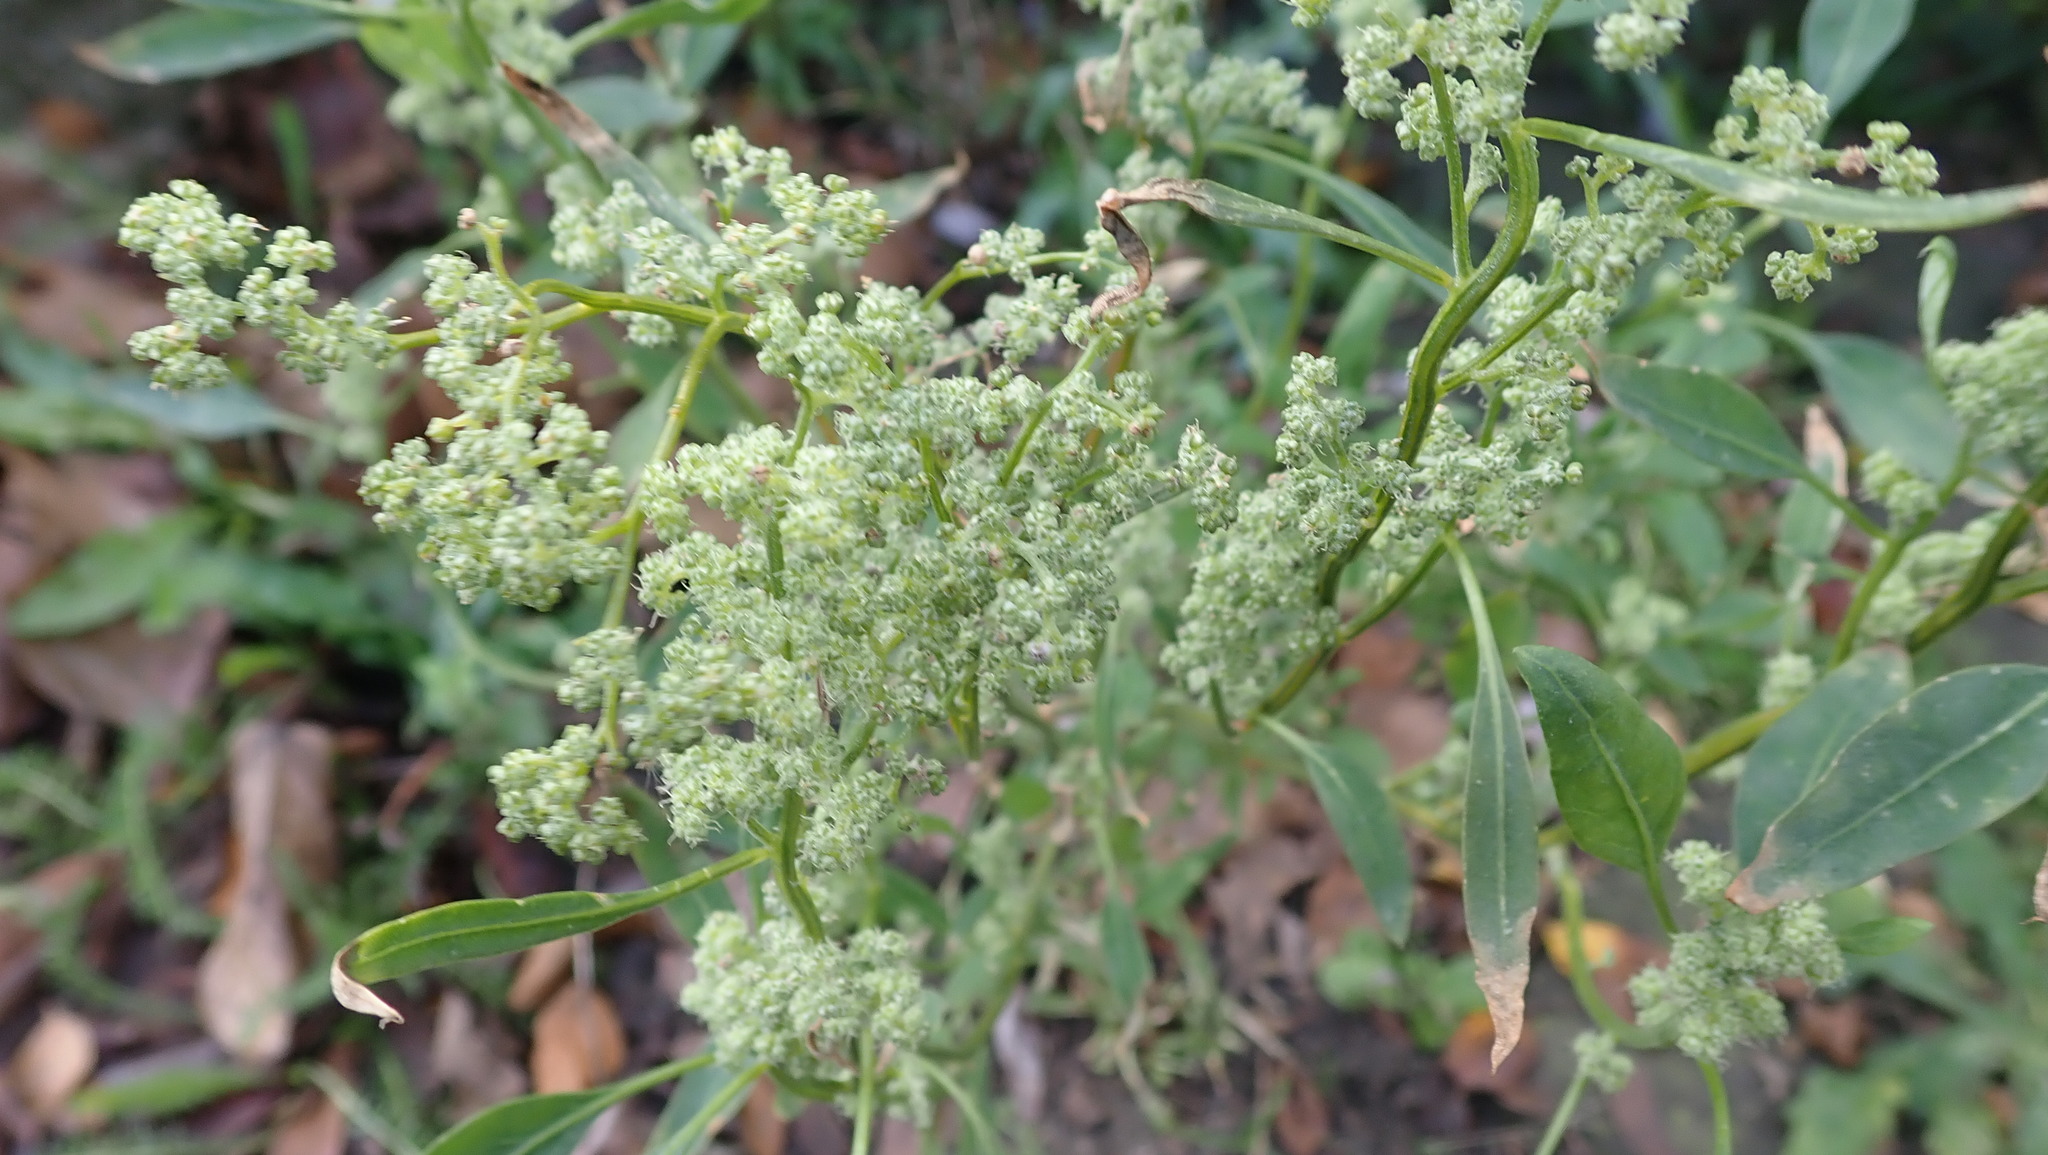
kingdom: Plantae
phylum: Tracheophyta
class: Magnoliopsida
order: Caryophyllales
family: Amaranthaceae
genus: Chenopodium
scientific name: Chenopodium album
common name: Fat-hen
